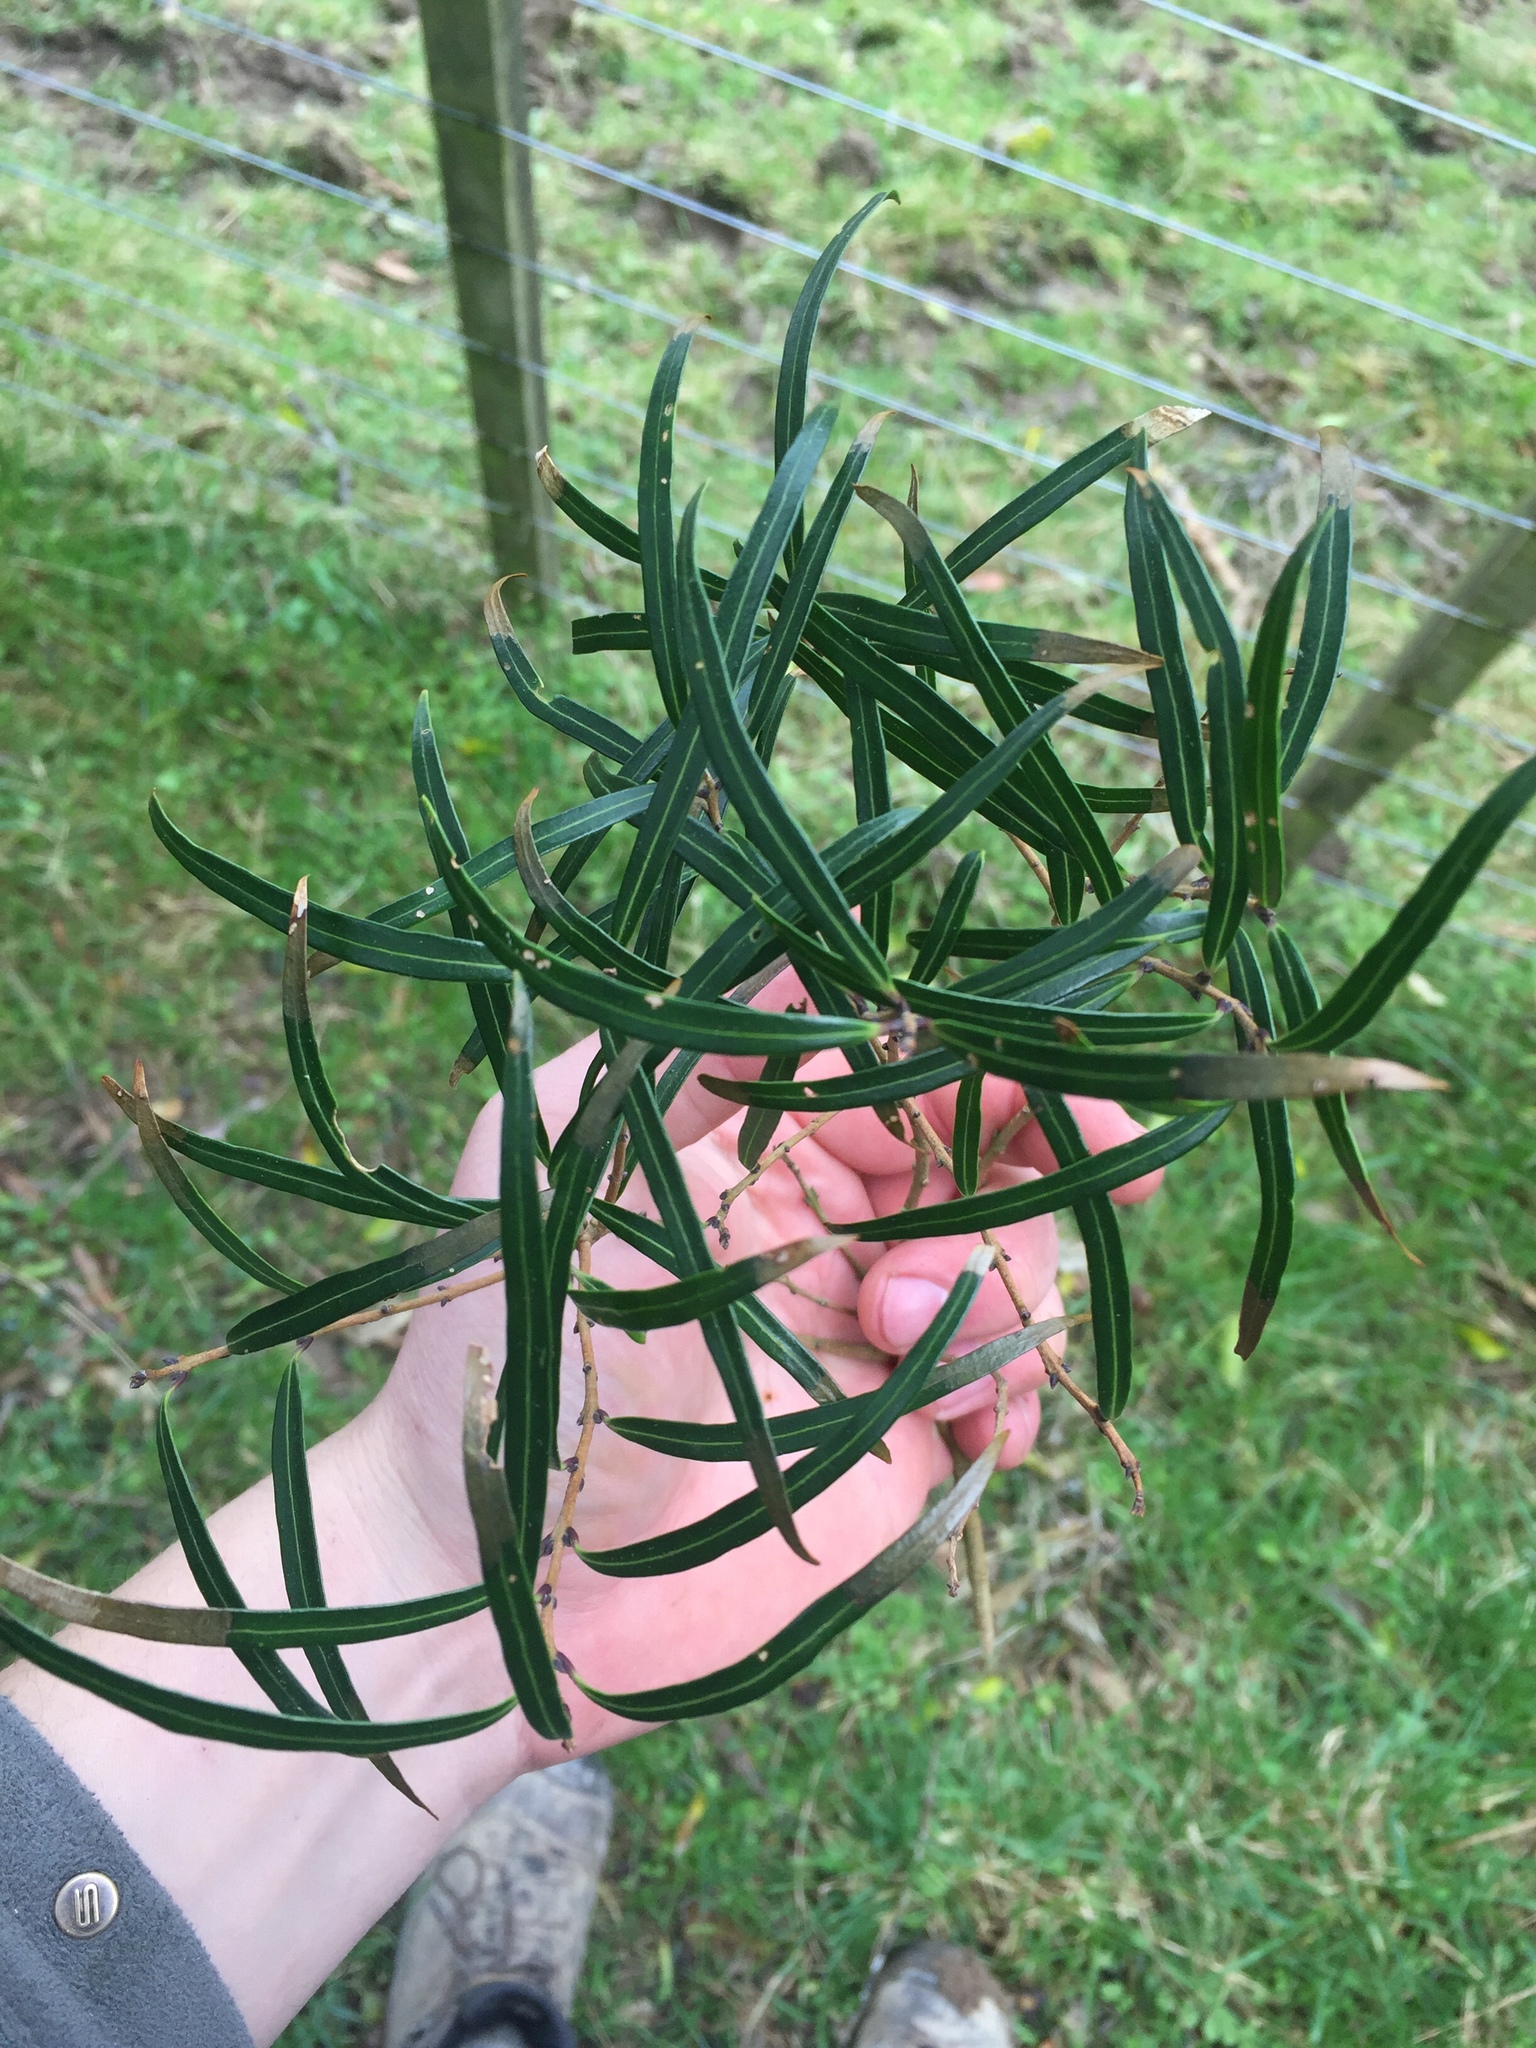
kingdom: Plantae
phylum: Tracheophyta
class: Magnoliopsida
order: Lamiales
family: Oleaceae
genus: Nestegis
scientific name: Nestegis montana
